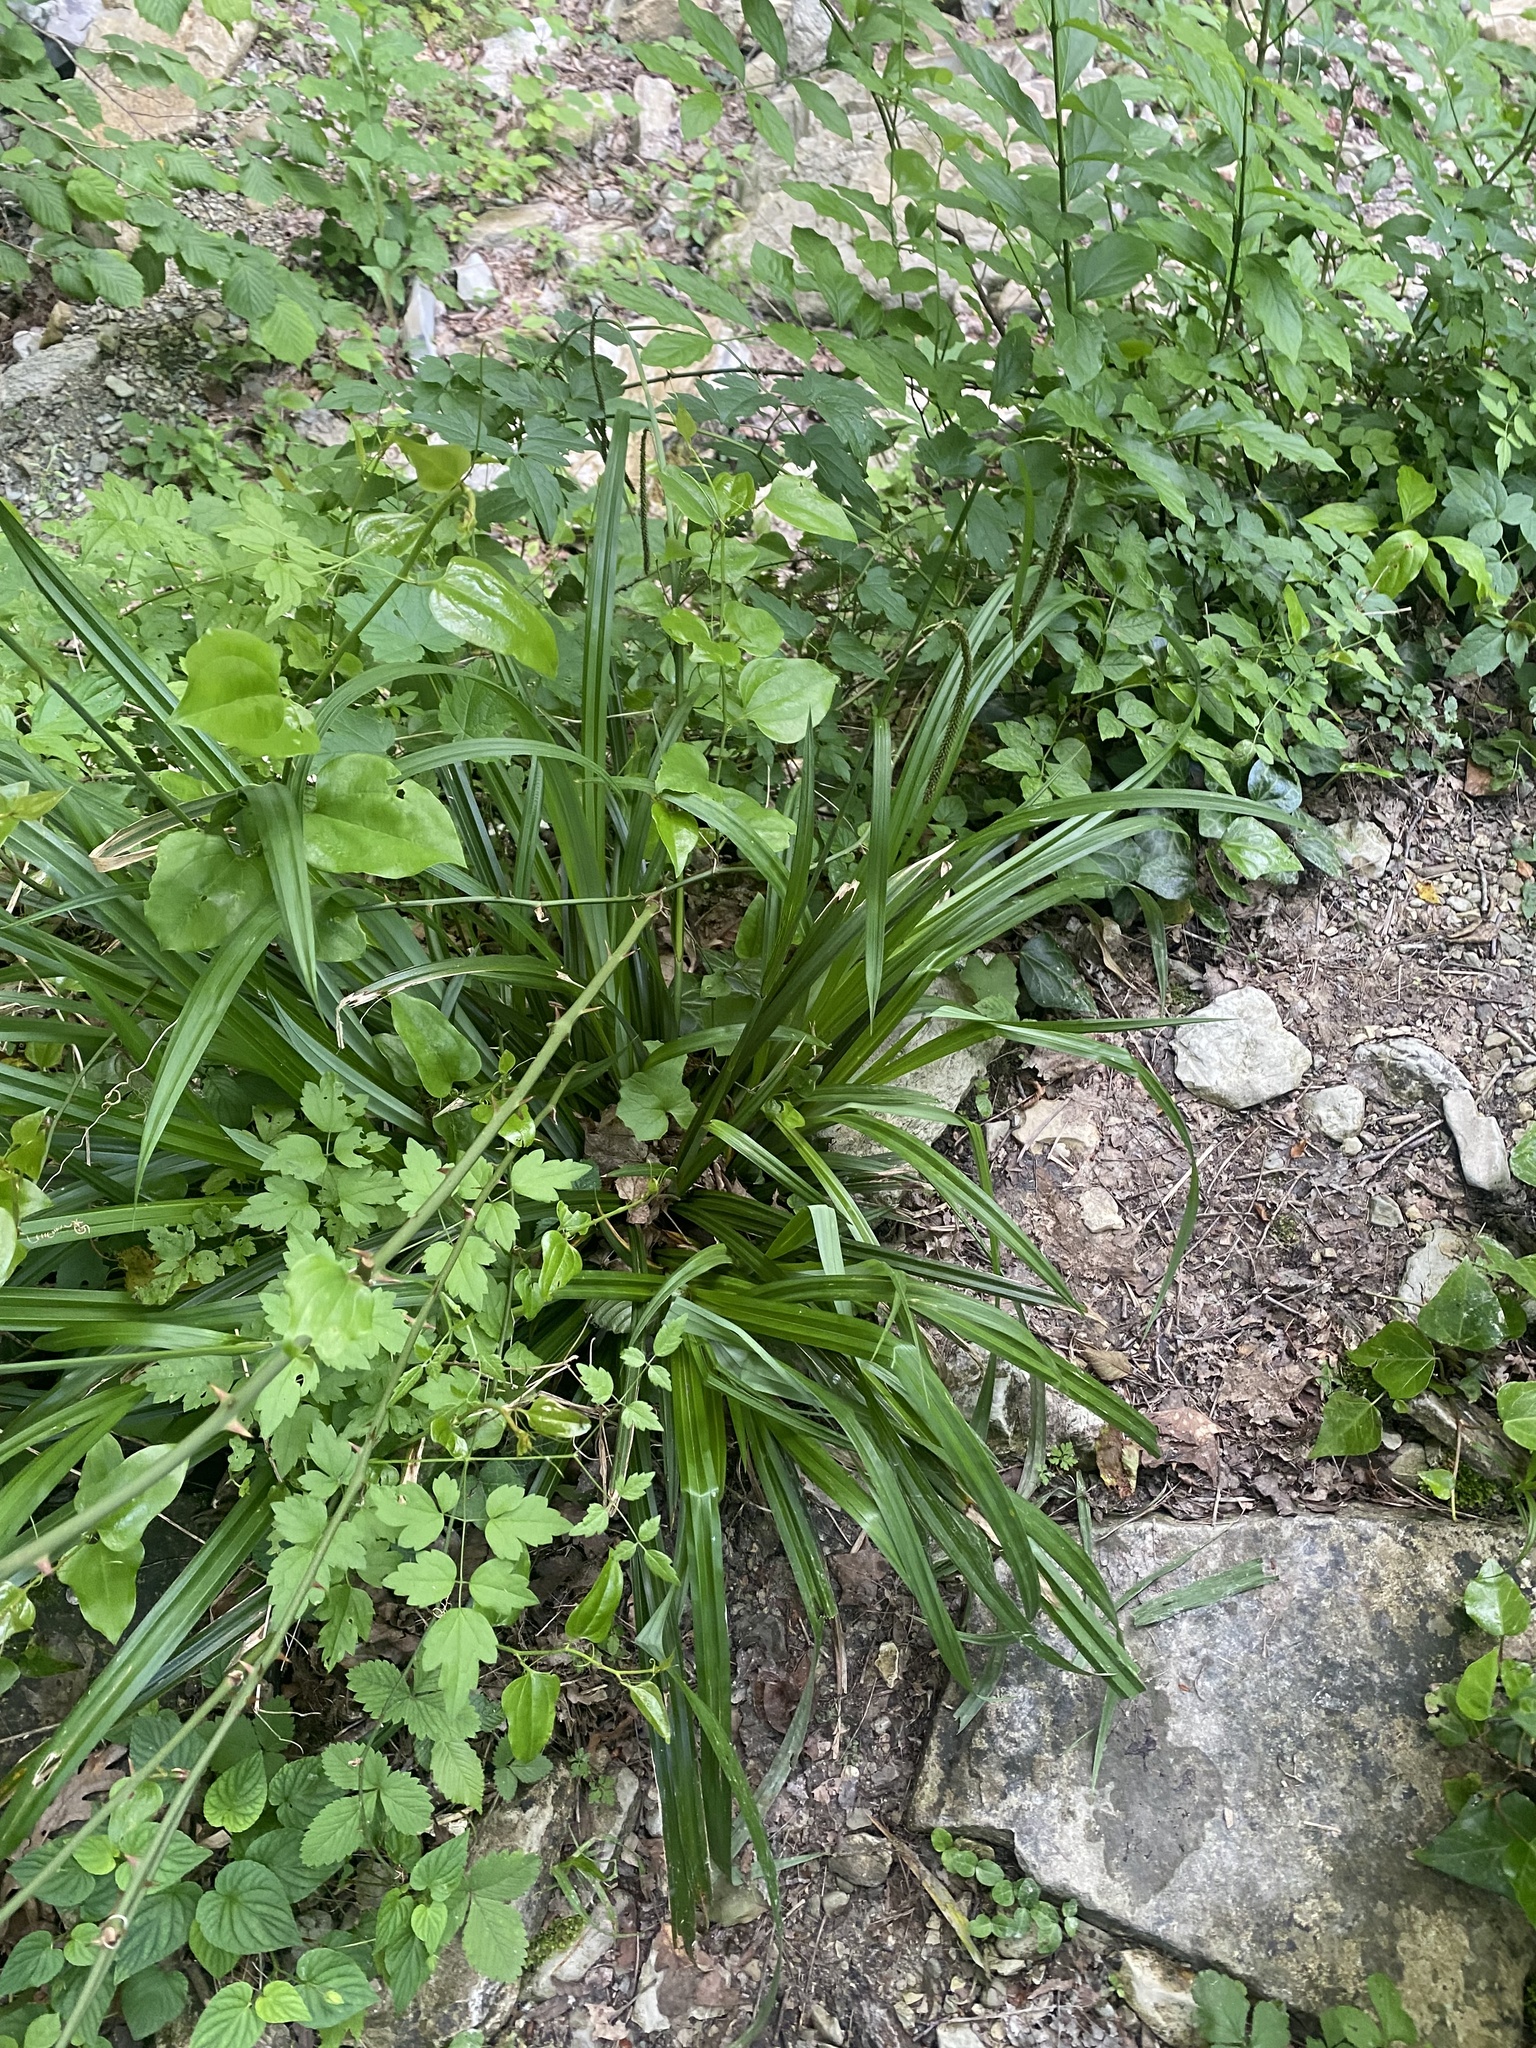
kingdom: Plantae
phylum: Tracheophyta
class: Liliopsida
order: Poales
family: Cyperaceae
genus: Carex
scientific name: Carex pendula
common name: Pendulous sedge
